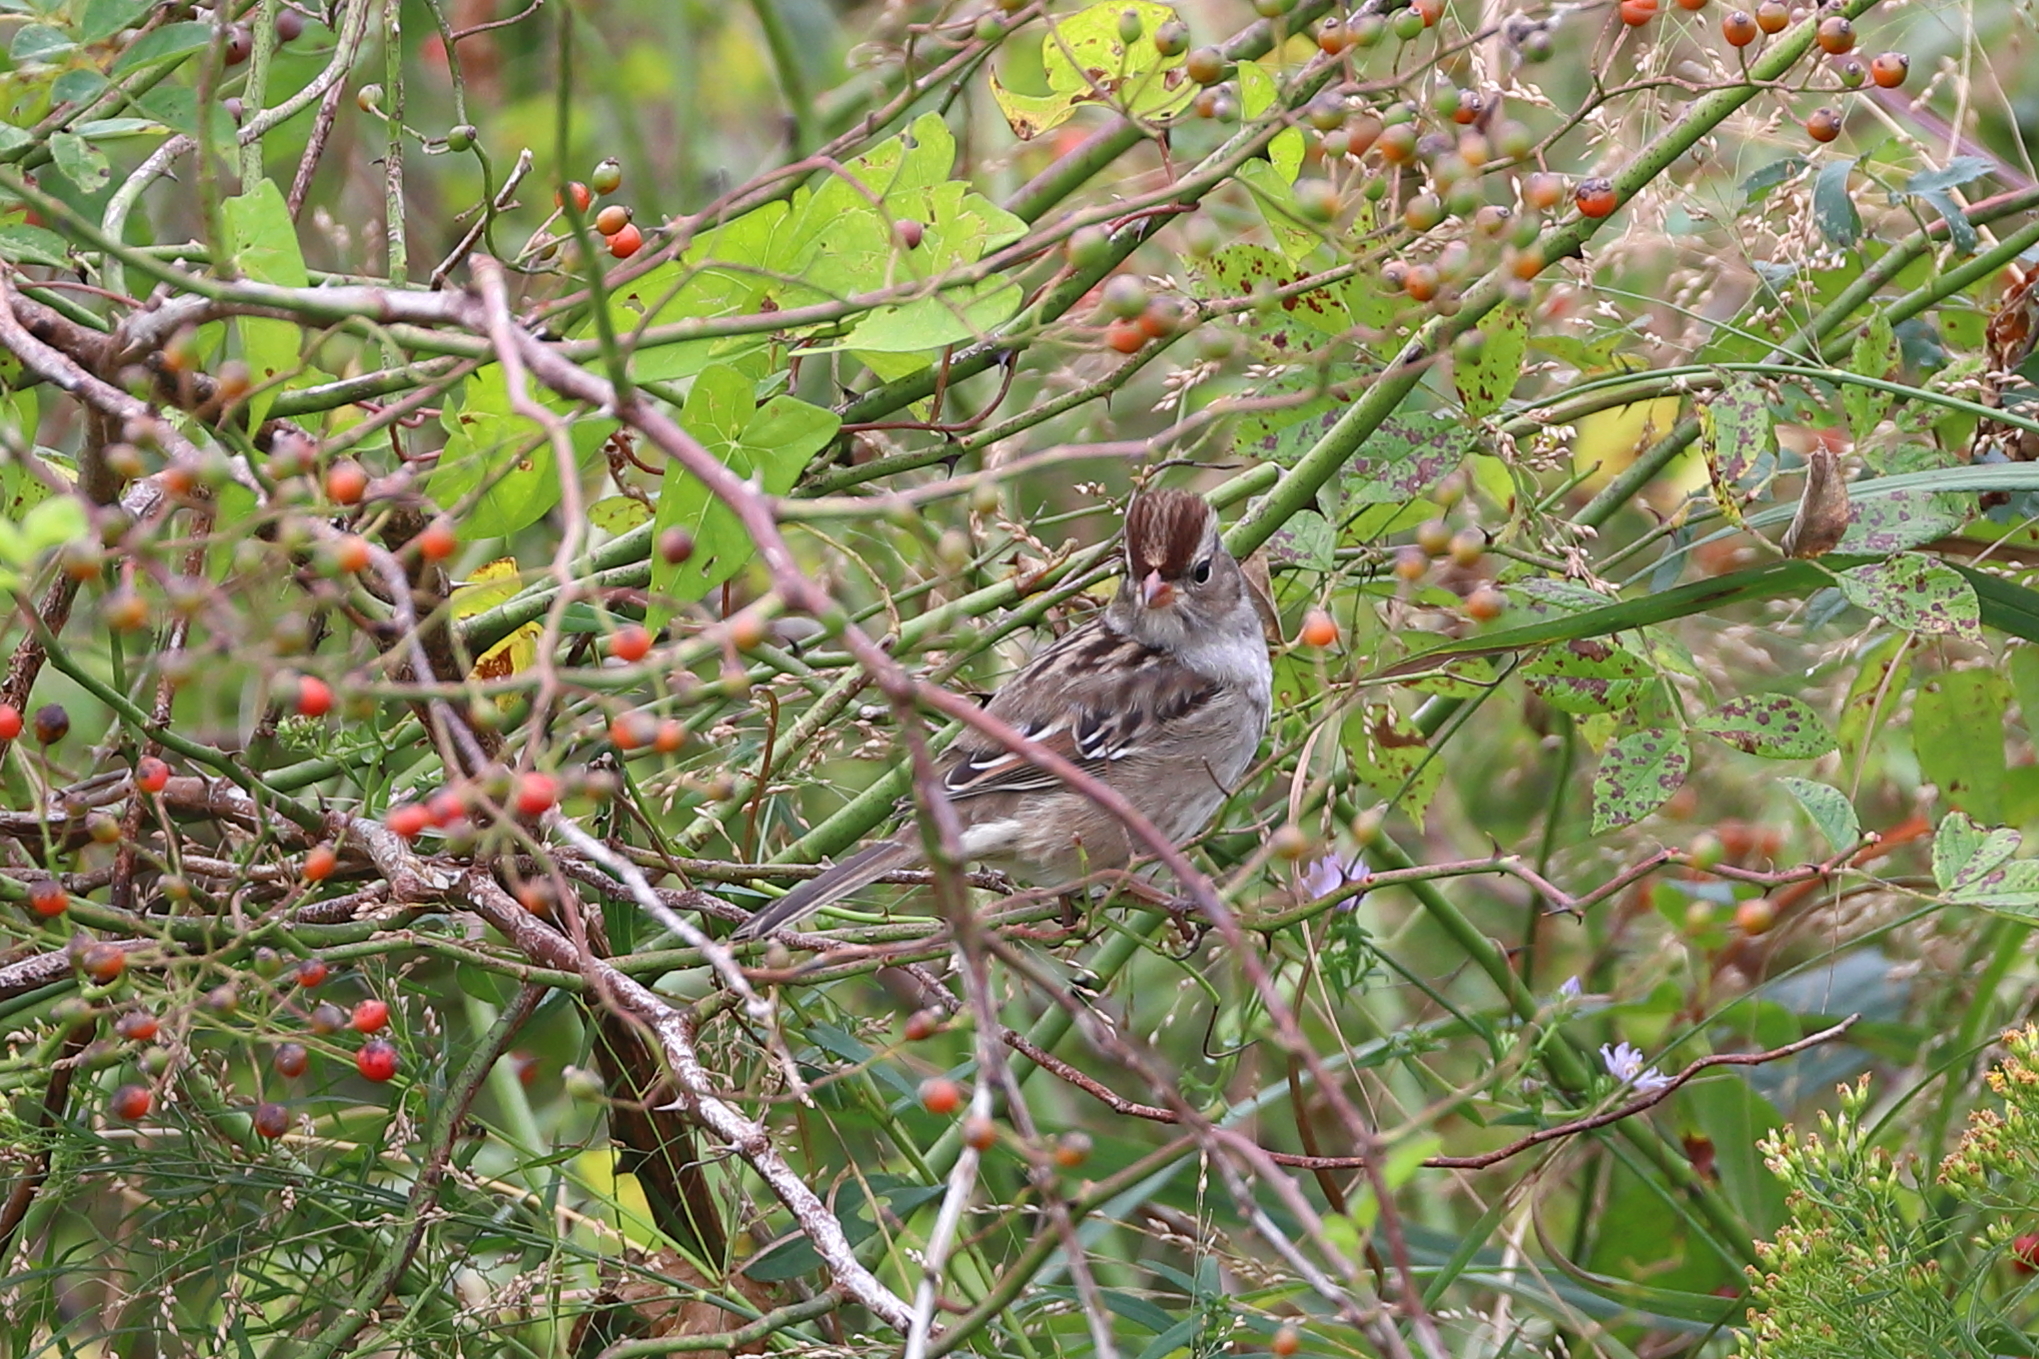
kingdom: Animalia
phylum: Chordata
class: Aves
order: Passeriformes
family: Passerellidae
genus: Zonotrichia
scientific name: Zonotrichia leucophrys
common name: White-crowned sparrow
